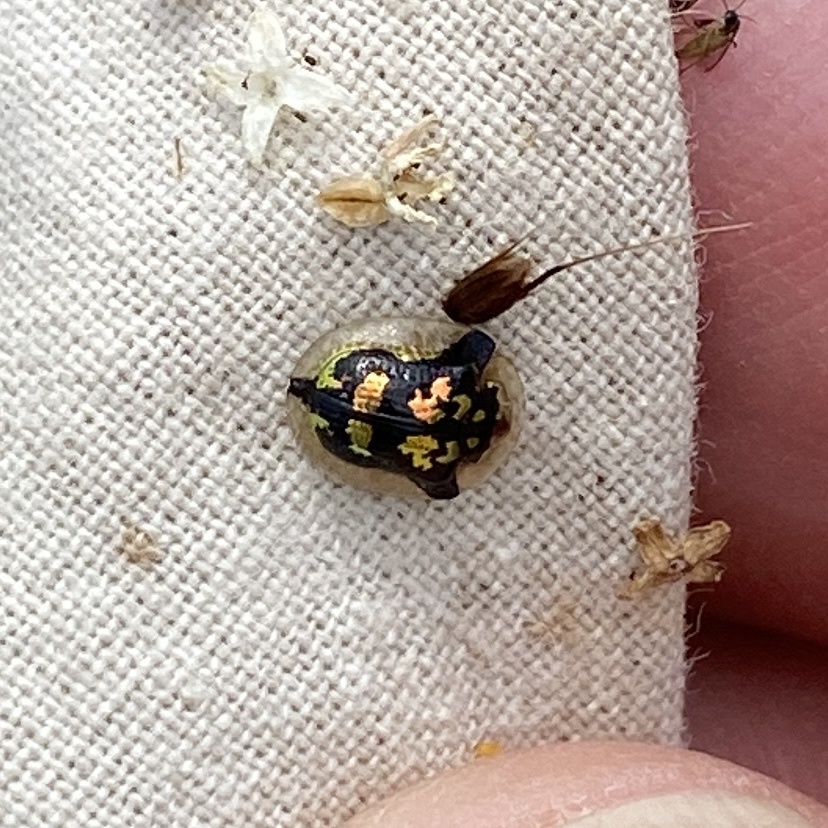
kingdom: Animalia
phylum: Arthropoda
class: Insecta
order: Coleoptera
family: Chrysomelidae
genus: Deloyala
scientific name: Deloyala guttata
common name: Mottled tortoise beetle
